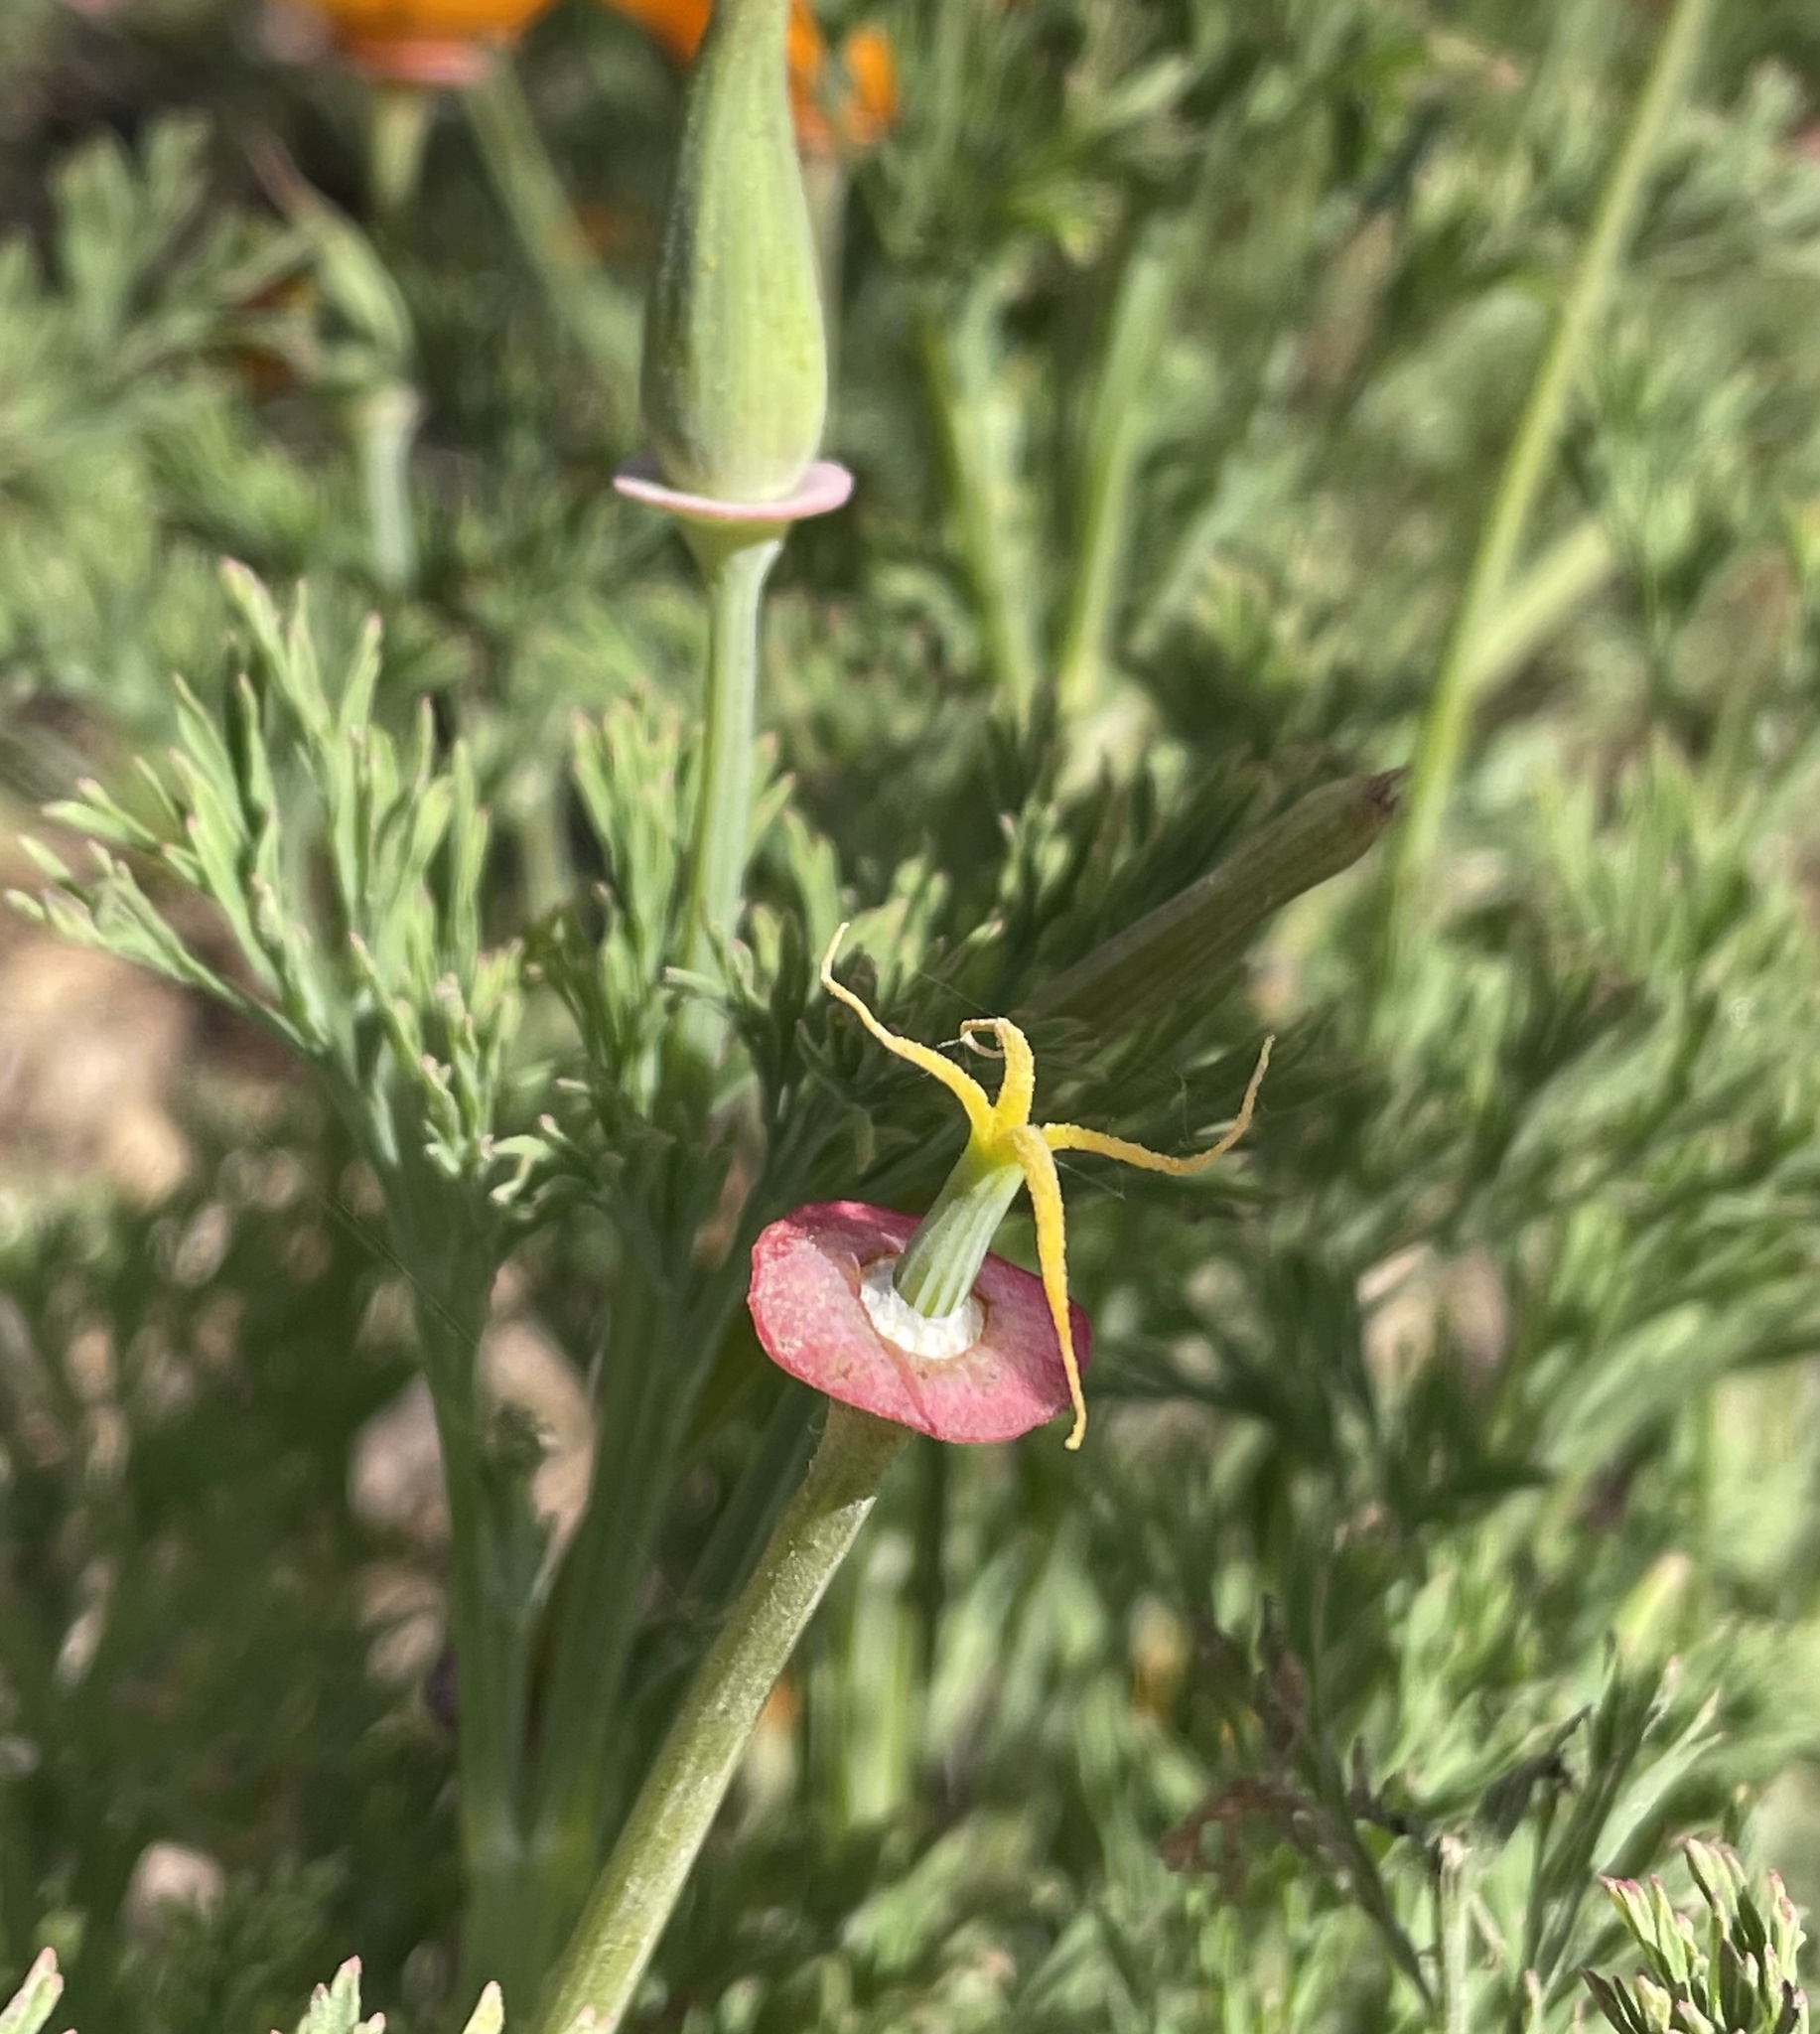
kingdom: Plantae
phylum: Tracheophyta
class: Magnoliopsida
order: Ranunculales
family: Papaveraceae
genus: Eschscholzia
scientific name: Eschscholzia californica
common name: California poppy
